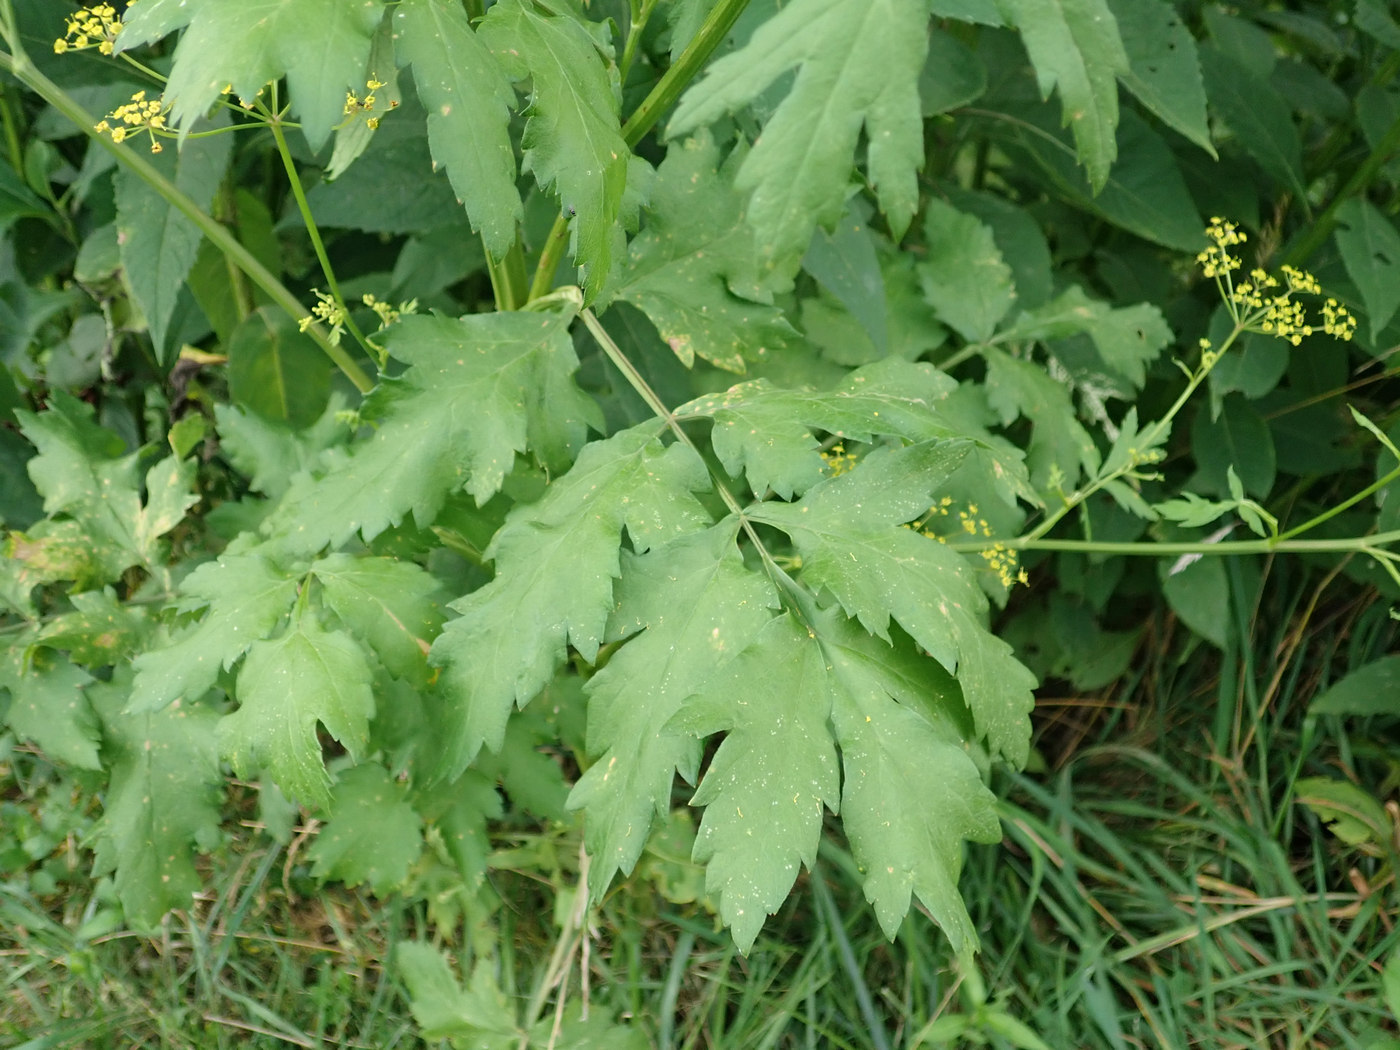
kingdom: Plantae
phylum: Tracheophyta
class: Magnoliopsida
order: Apiales
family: Apiaceae
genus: Pastinaca
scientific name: Pastinaca sativa
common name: Wild parsnip
